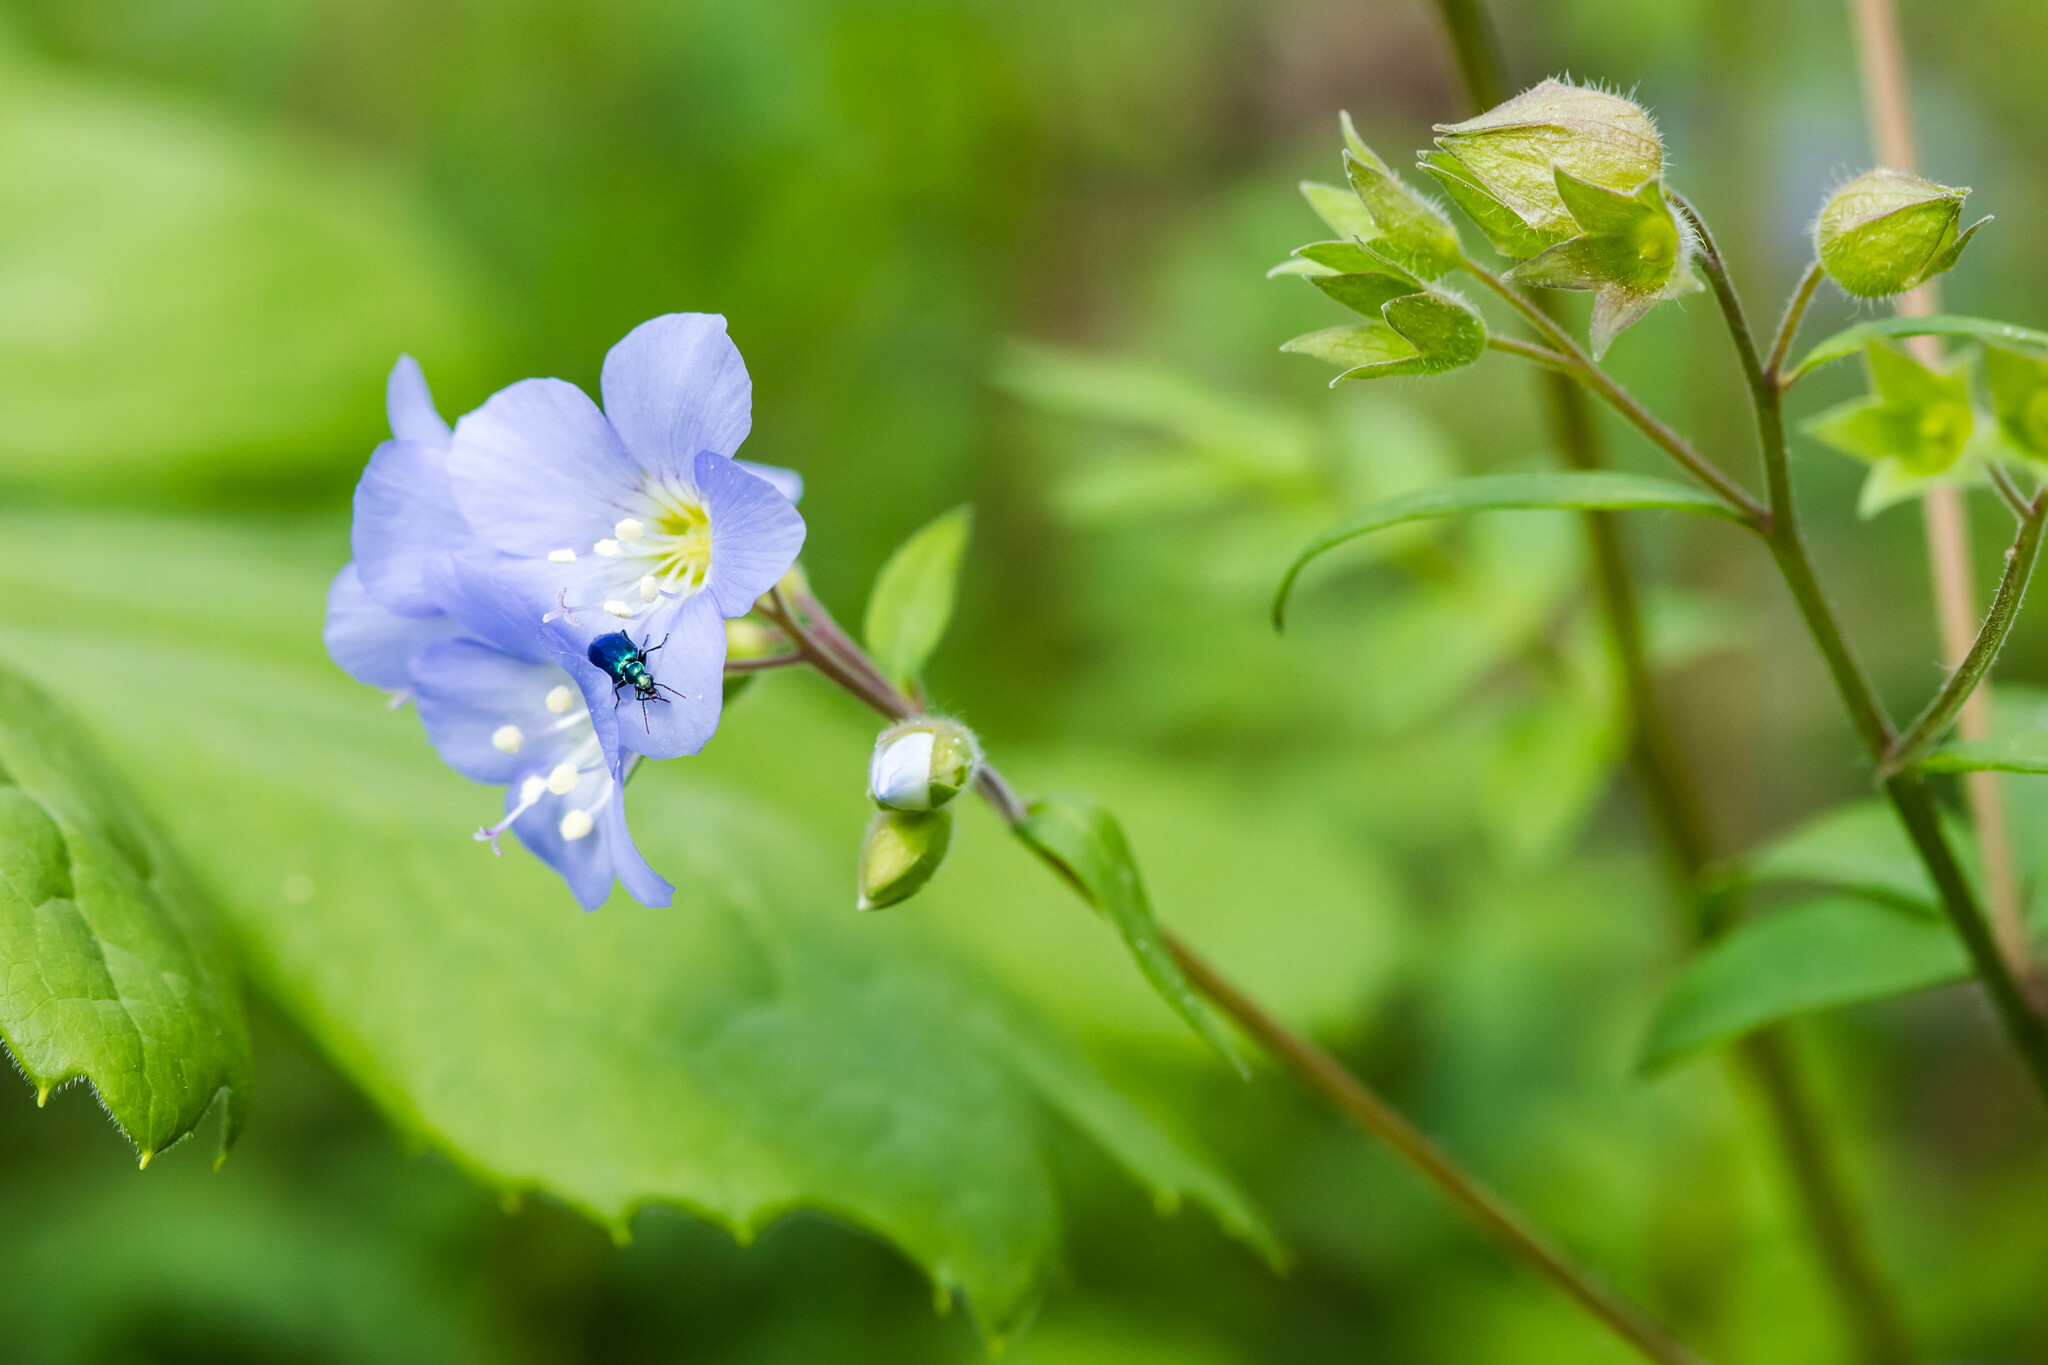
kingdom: Animalia
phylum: Arthropoda
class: Insecta
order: Coleoptera
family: Carabidae
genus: Lebia
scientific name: Lebia viridis
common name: Flower lebia beetle
